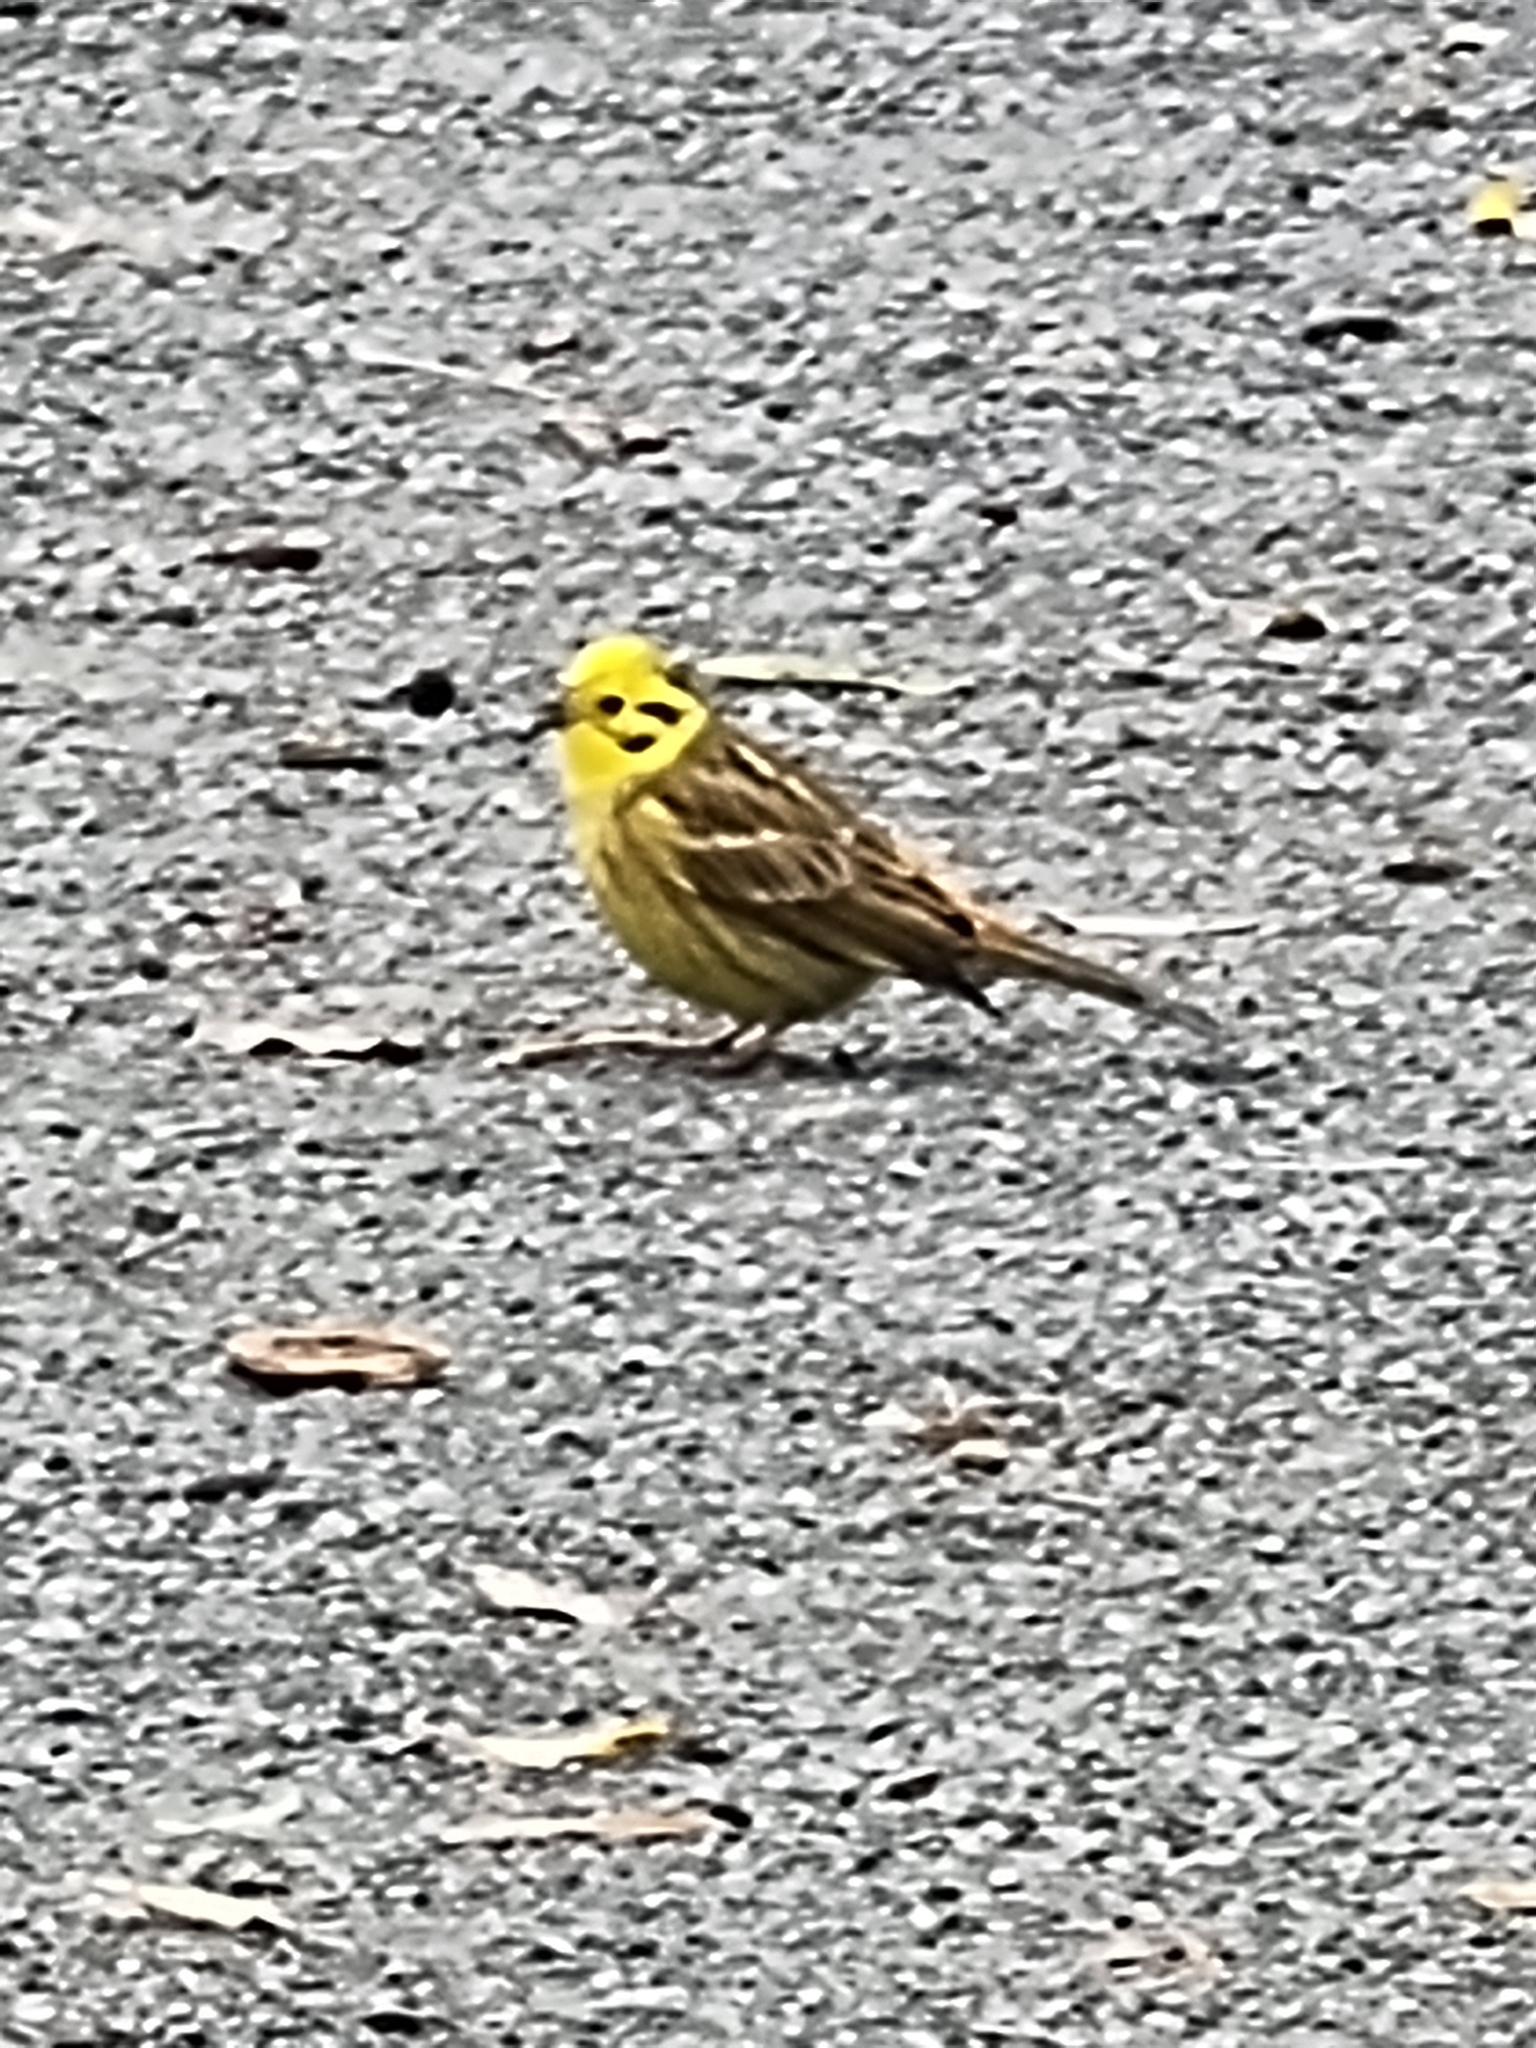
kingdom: Animalia
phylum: Chordata
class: Aves
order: Passeriformes
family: Emberizidae
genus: Emberiza
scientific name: Emberiza citrinella
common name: Yellowhammer
